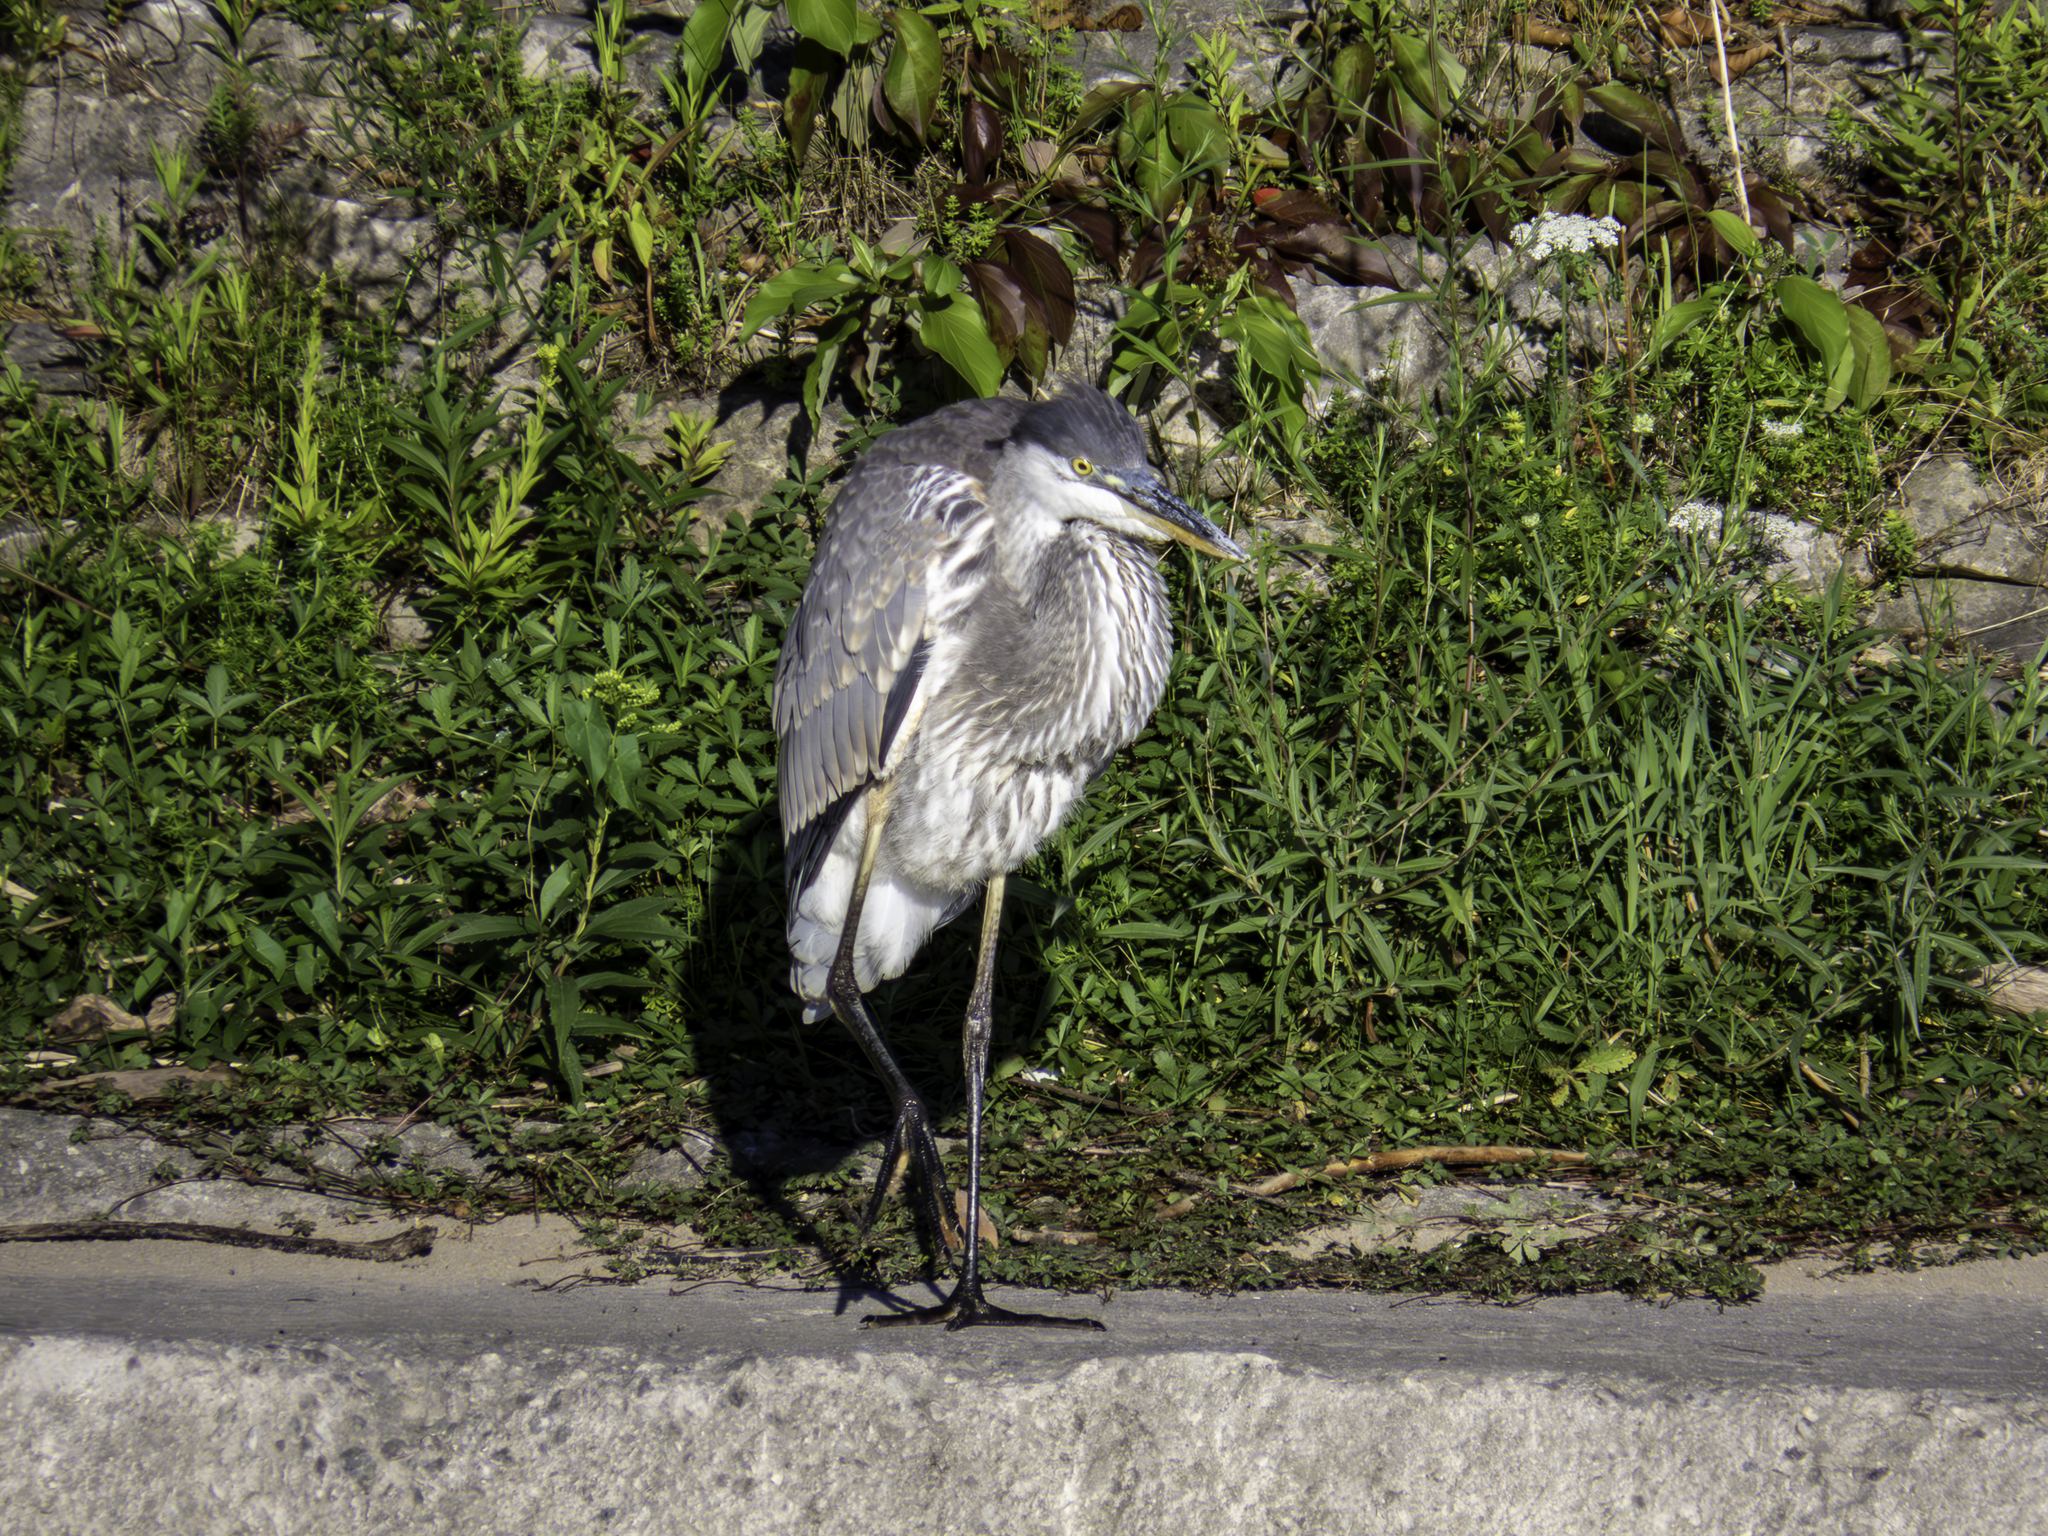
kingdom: Animalia
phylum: Chordata
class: Aves
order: Pelecaniformes
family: Ardeidae
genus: Ardea
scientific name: Ardea herodias
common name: Great blue heron
